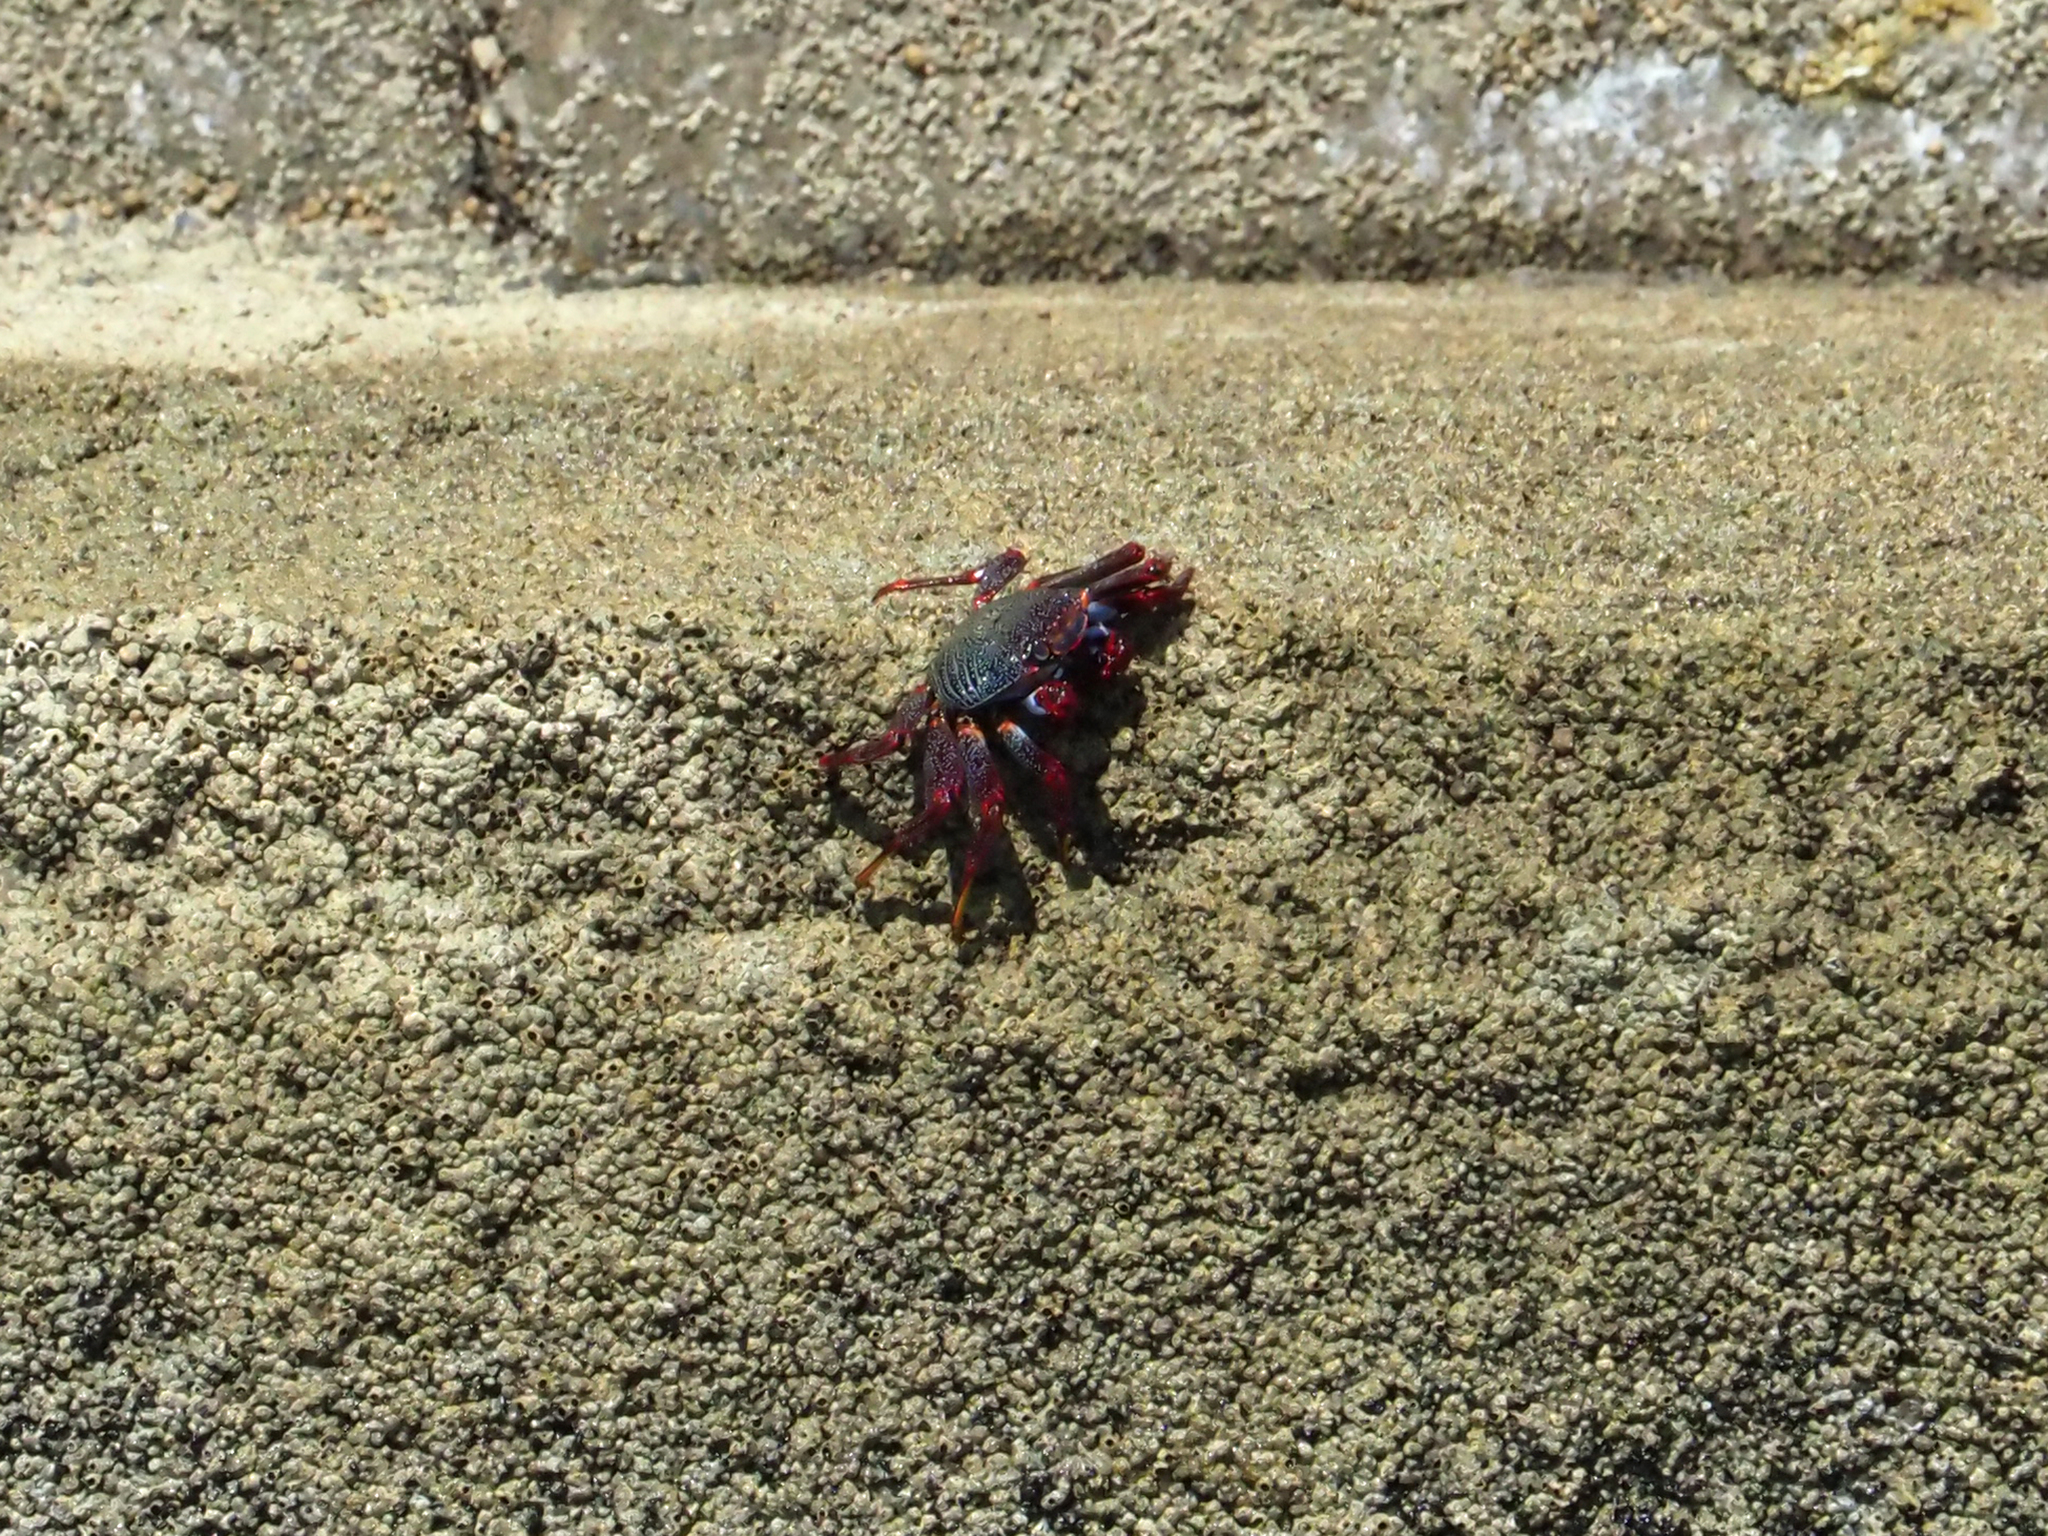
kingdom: Animalia
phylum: Arthropoda
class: Malacostraca
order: Decapoda
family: Grapsidae
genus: Grapsus
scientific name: Grapsus adscensionis
